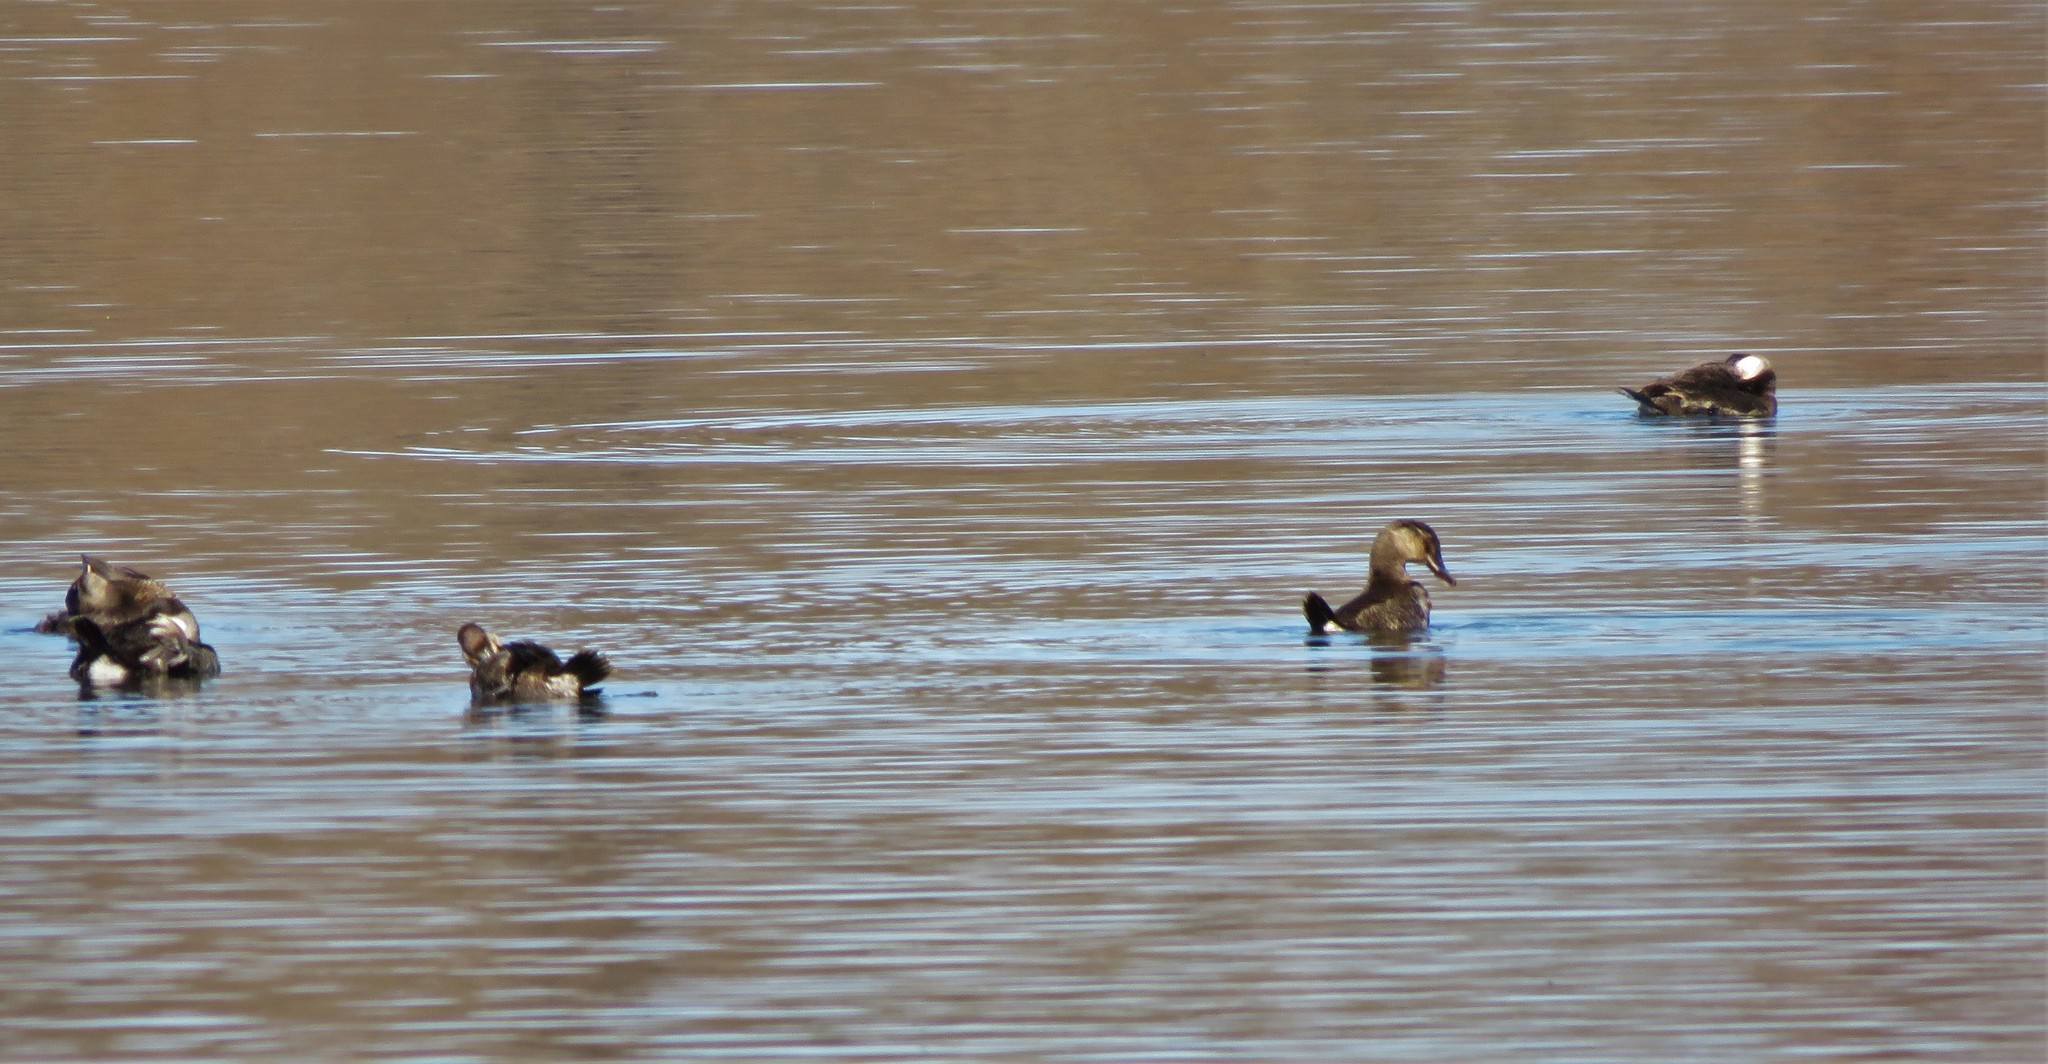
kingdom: Animalia
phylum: Chordata
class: Aves
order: Anseriformes
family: Anatidae
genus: Oxyura
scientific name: Oxyura jamaicensis
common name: Ruddy duck
